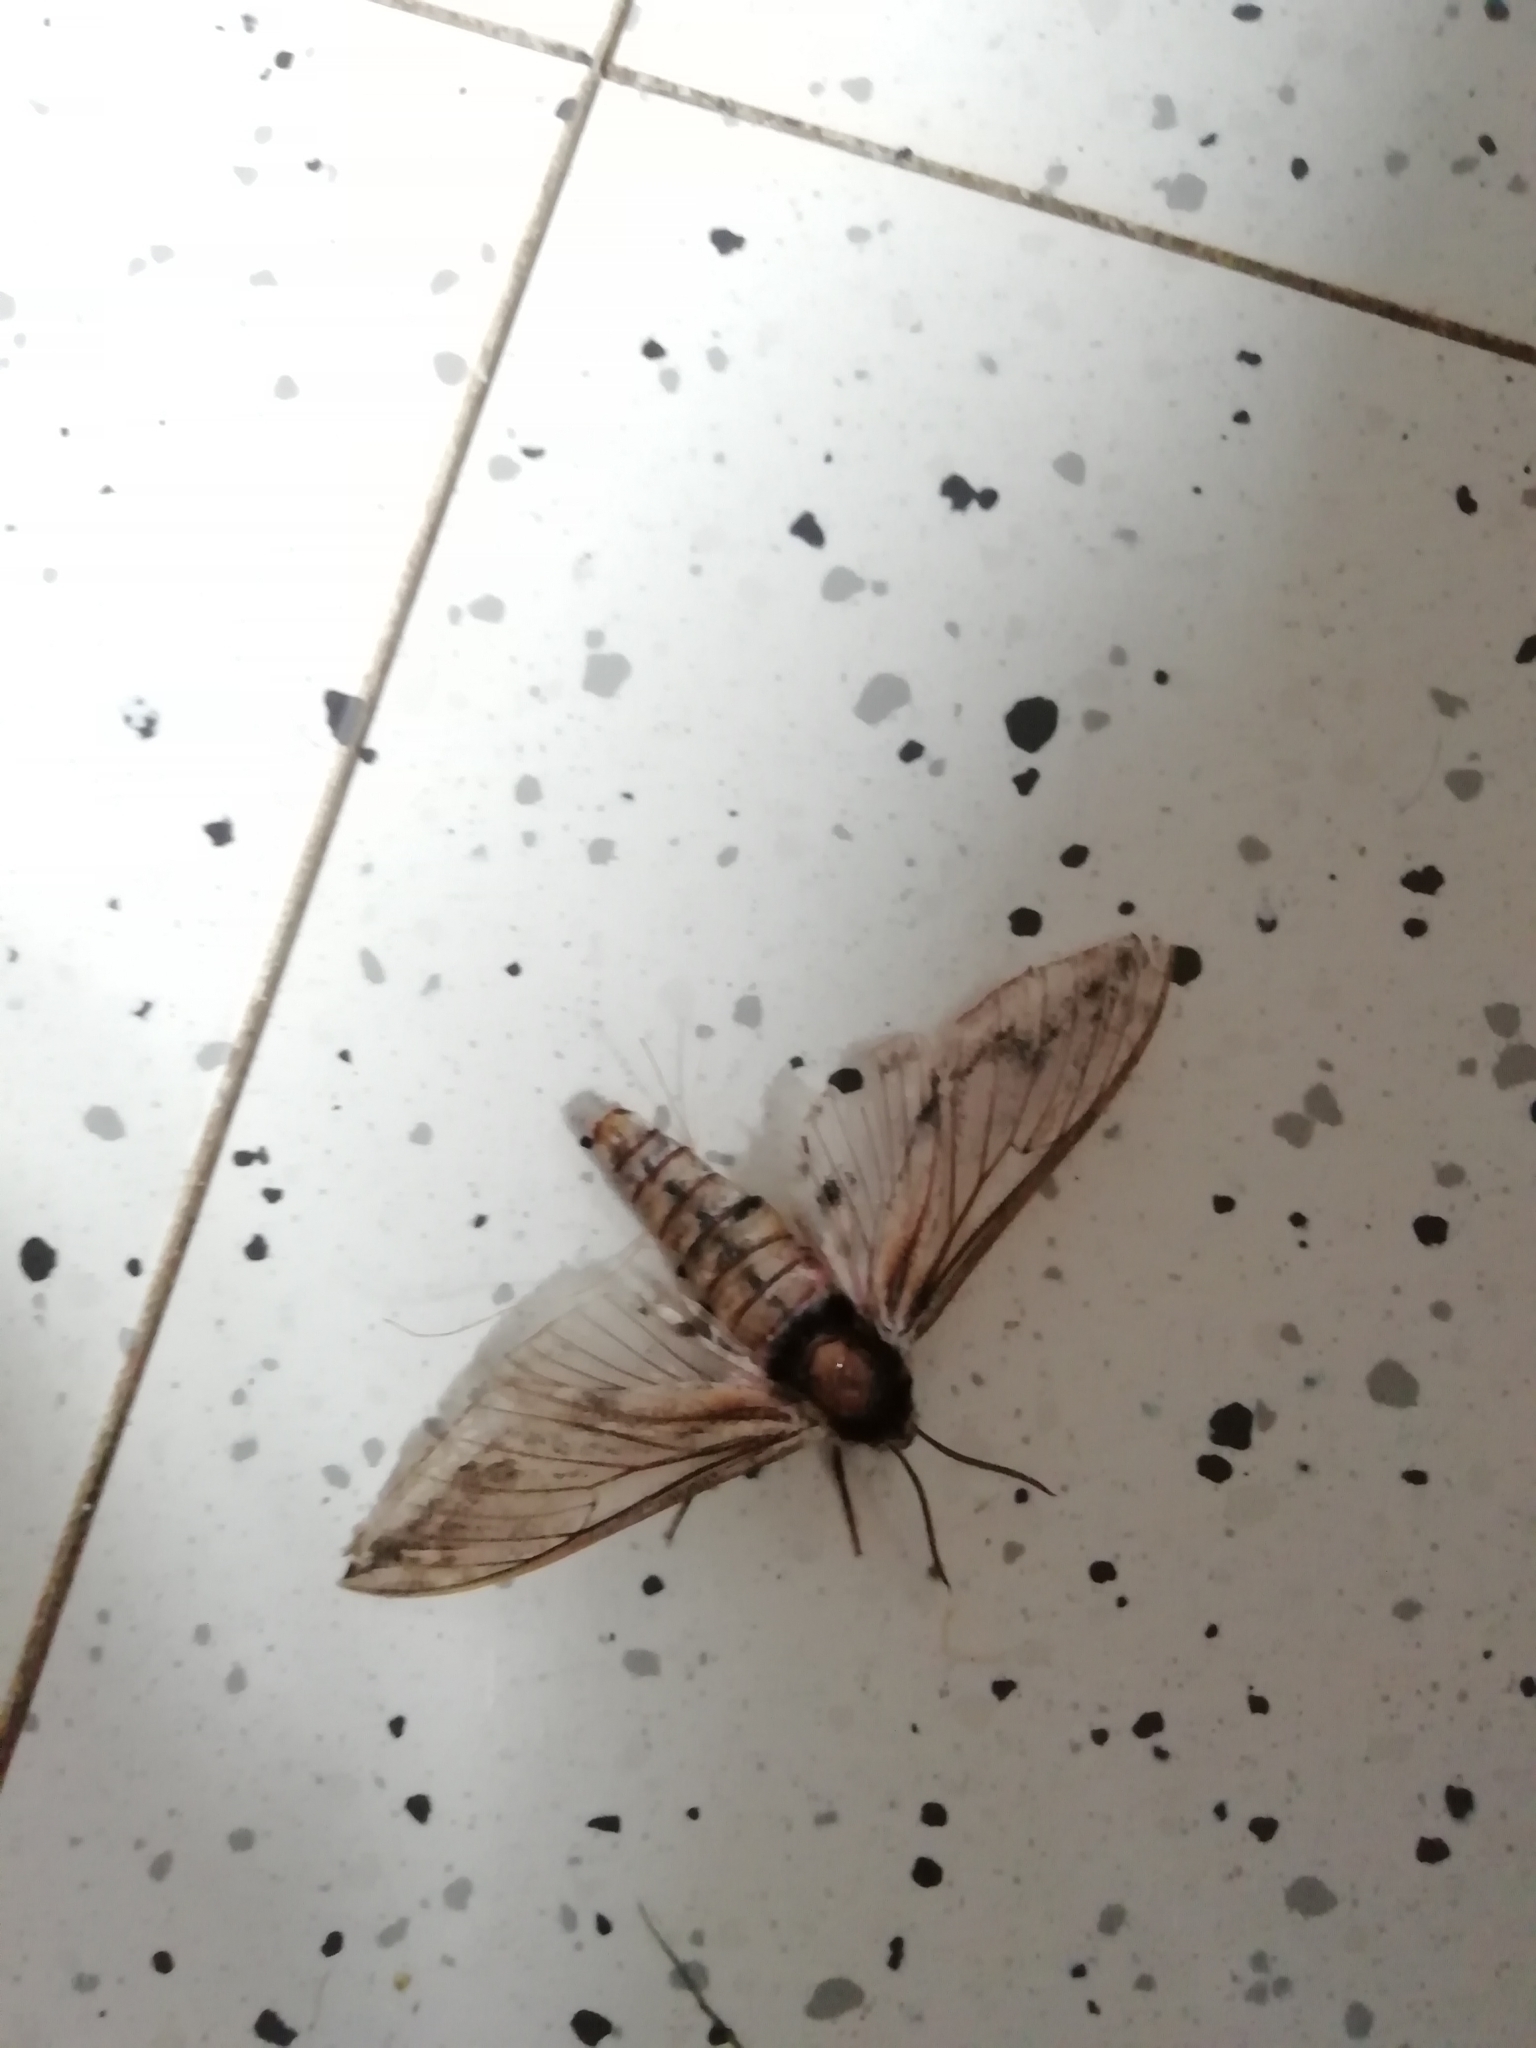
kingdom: Animalia
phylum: Arthropoda
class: Insecta
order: Lepidoptera
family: Sphingidae
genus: Sphinx
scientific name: Sphinx ligustri
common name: Privet hawk-moth
